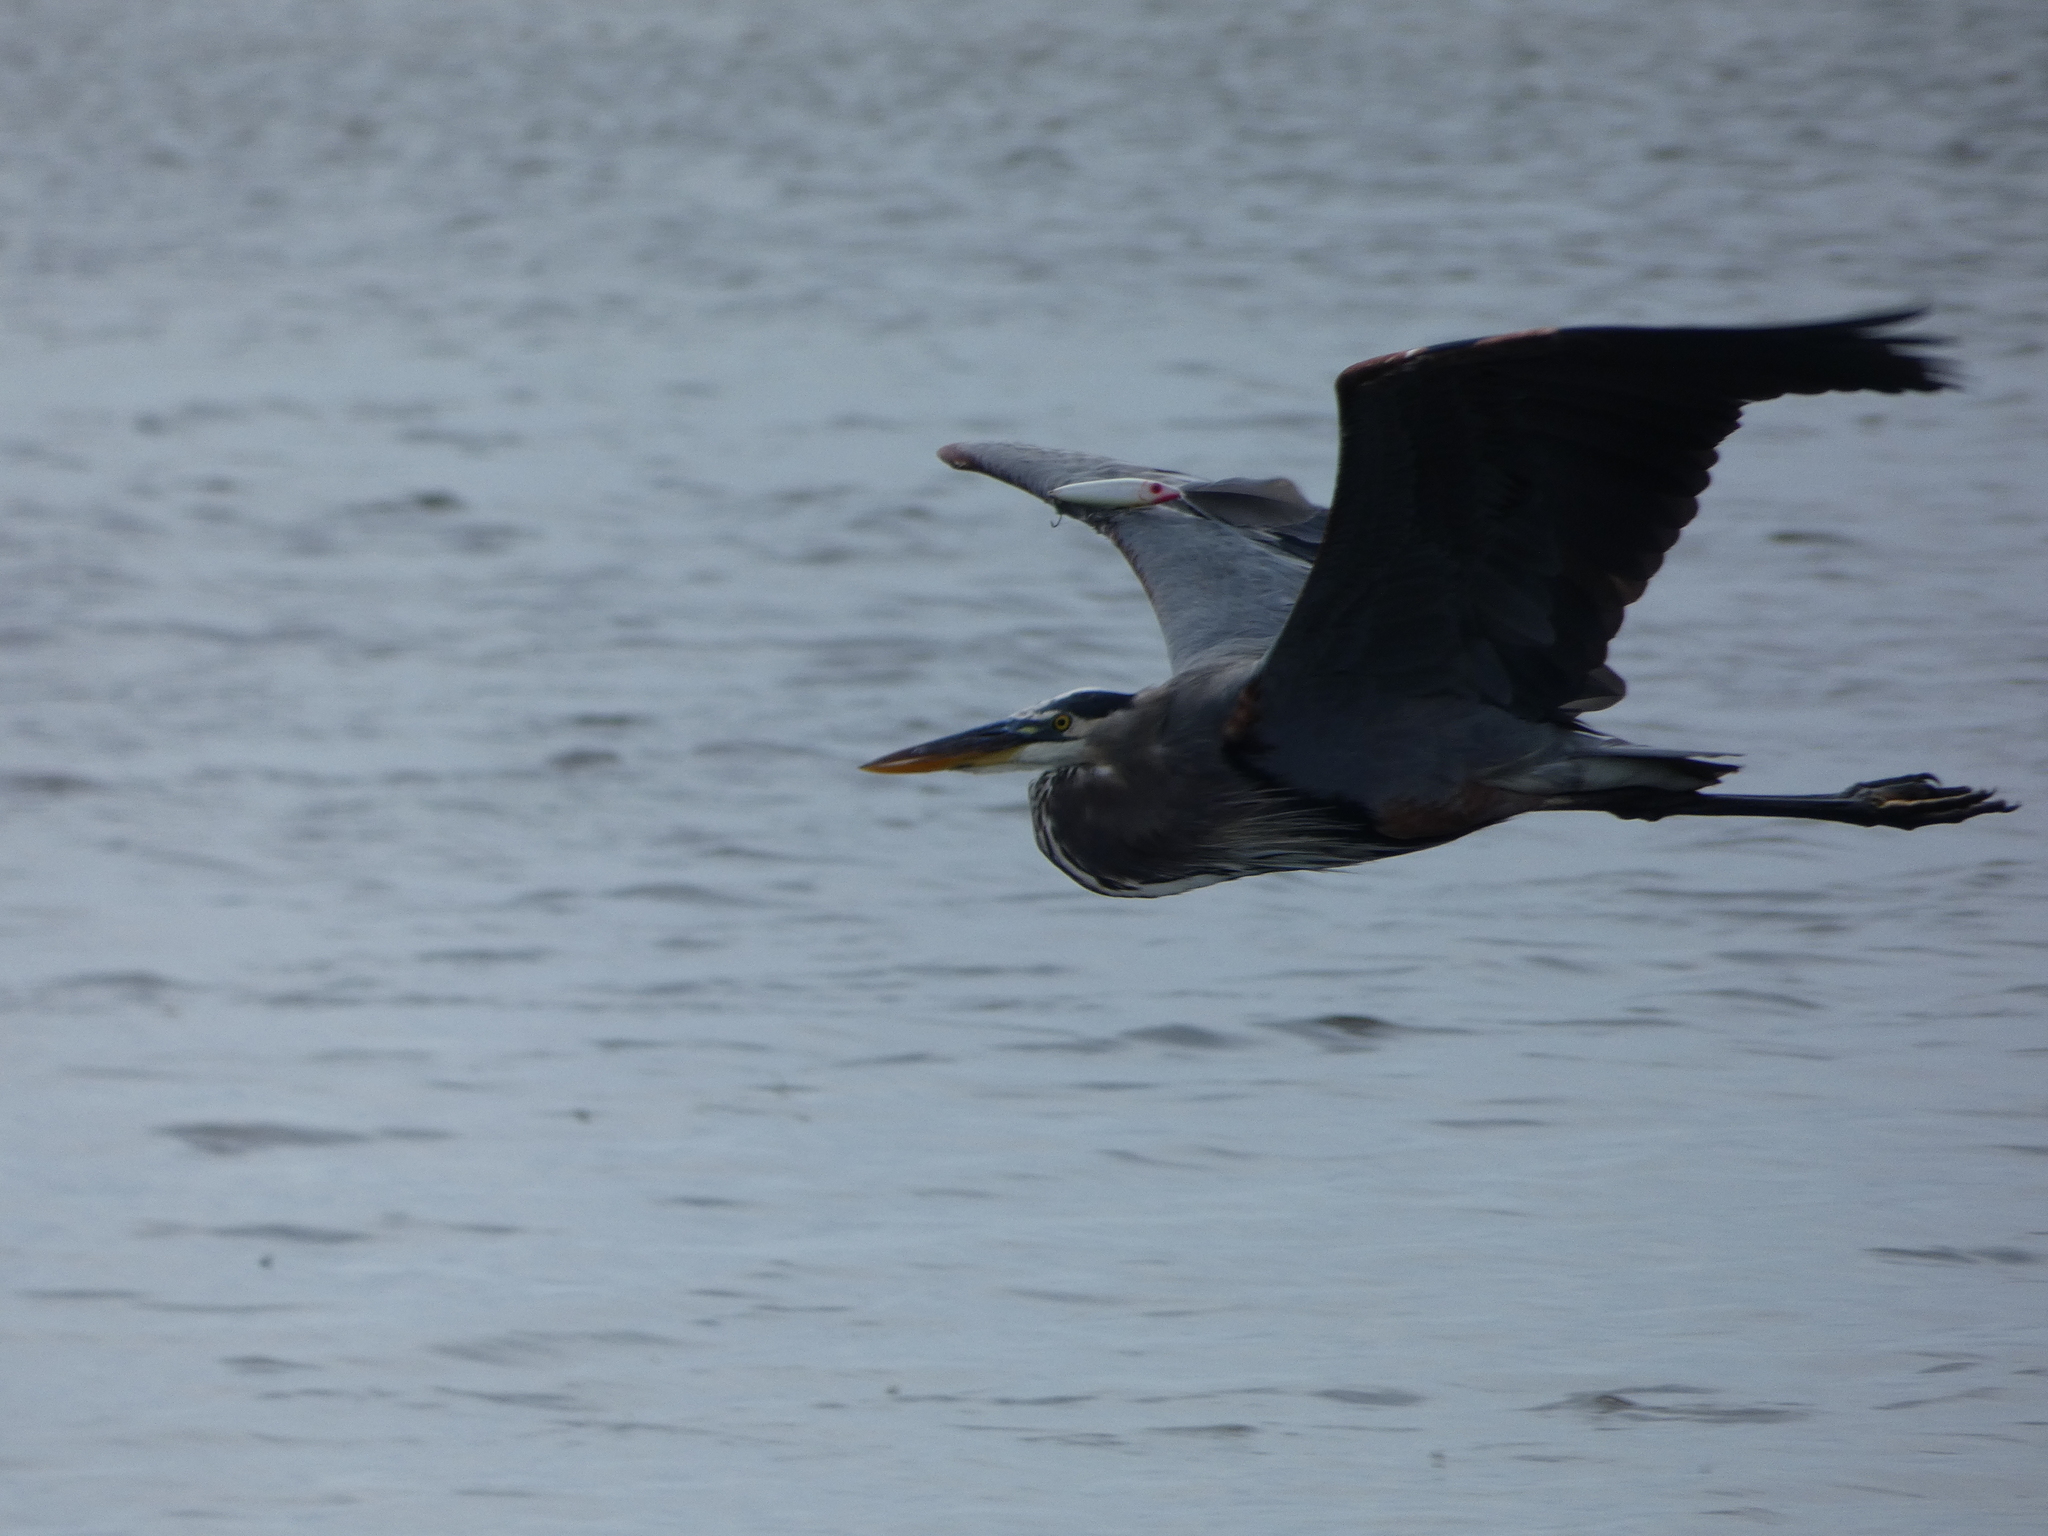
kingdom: Animalia
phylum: Chordata
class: Aves
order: Pelecaniformes
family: Ardeidae
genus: Ardea
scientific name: Ardea herodias
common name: Great blue heron
